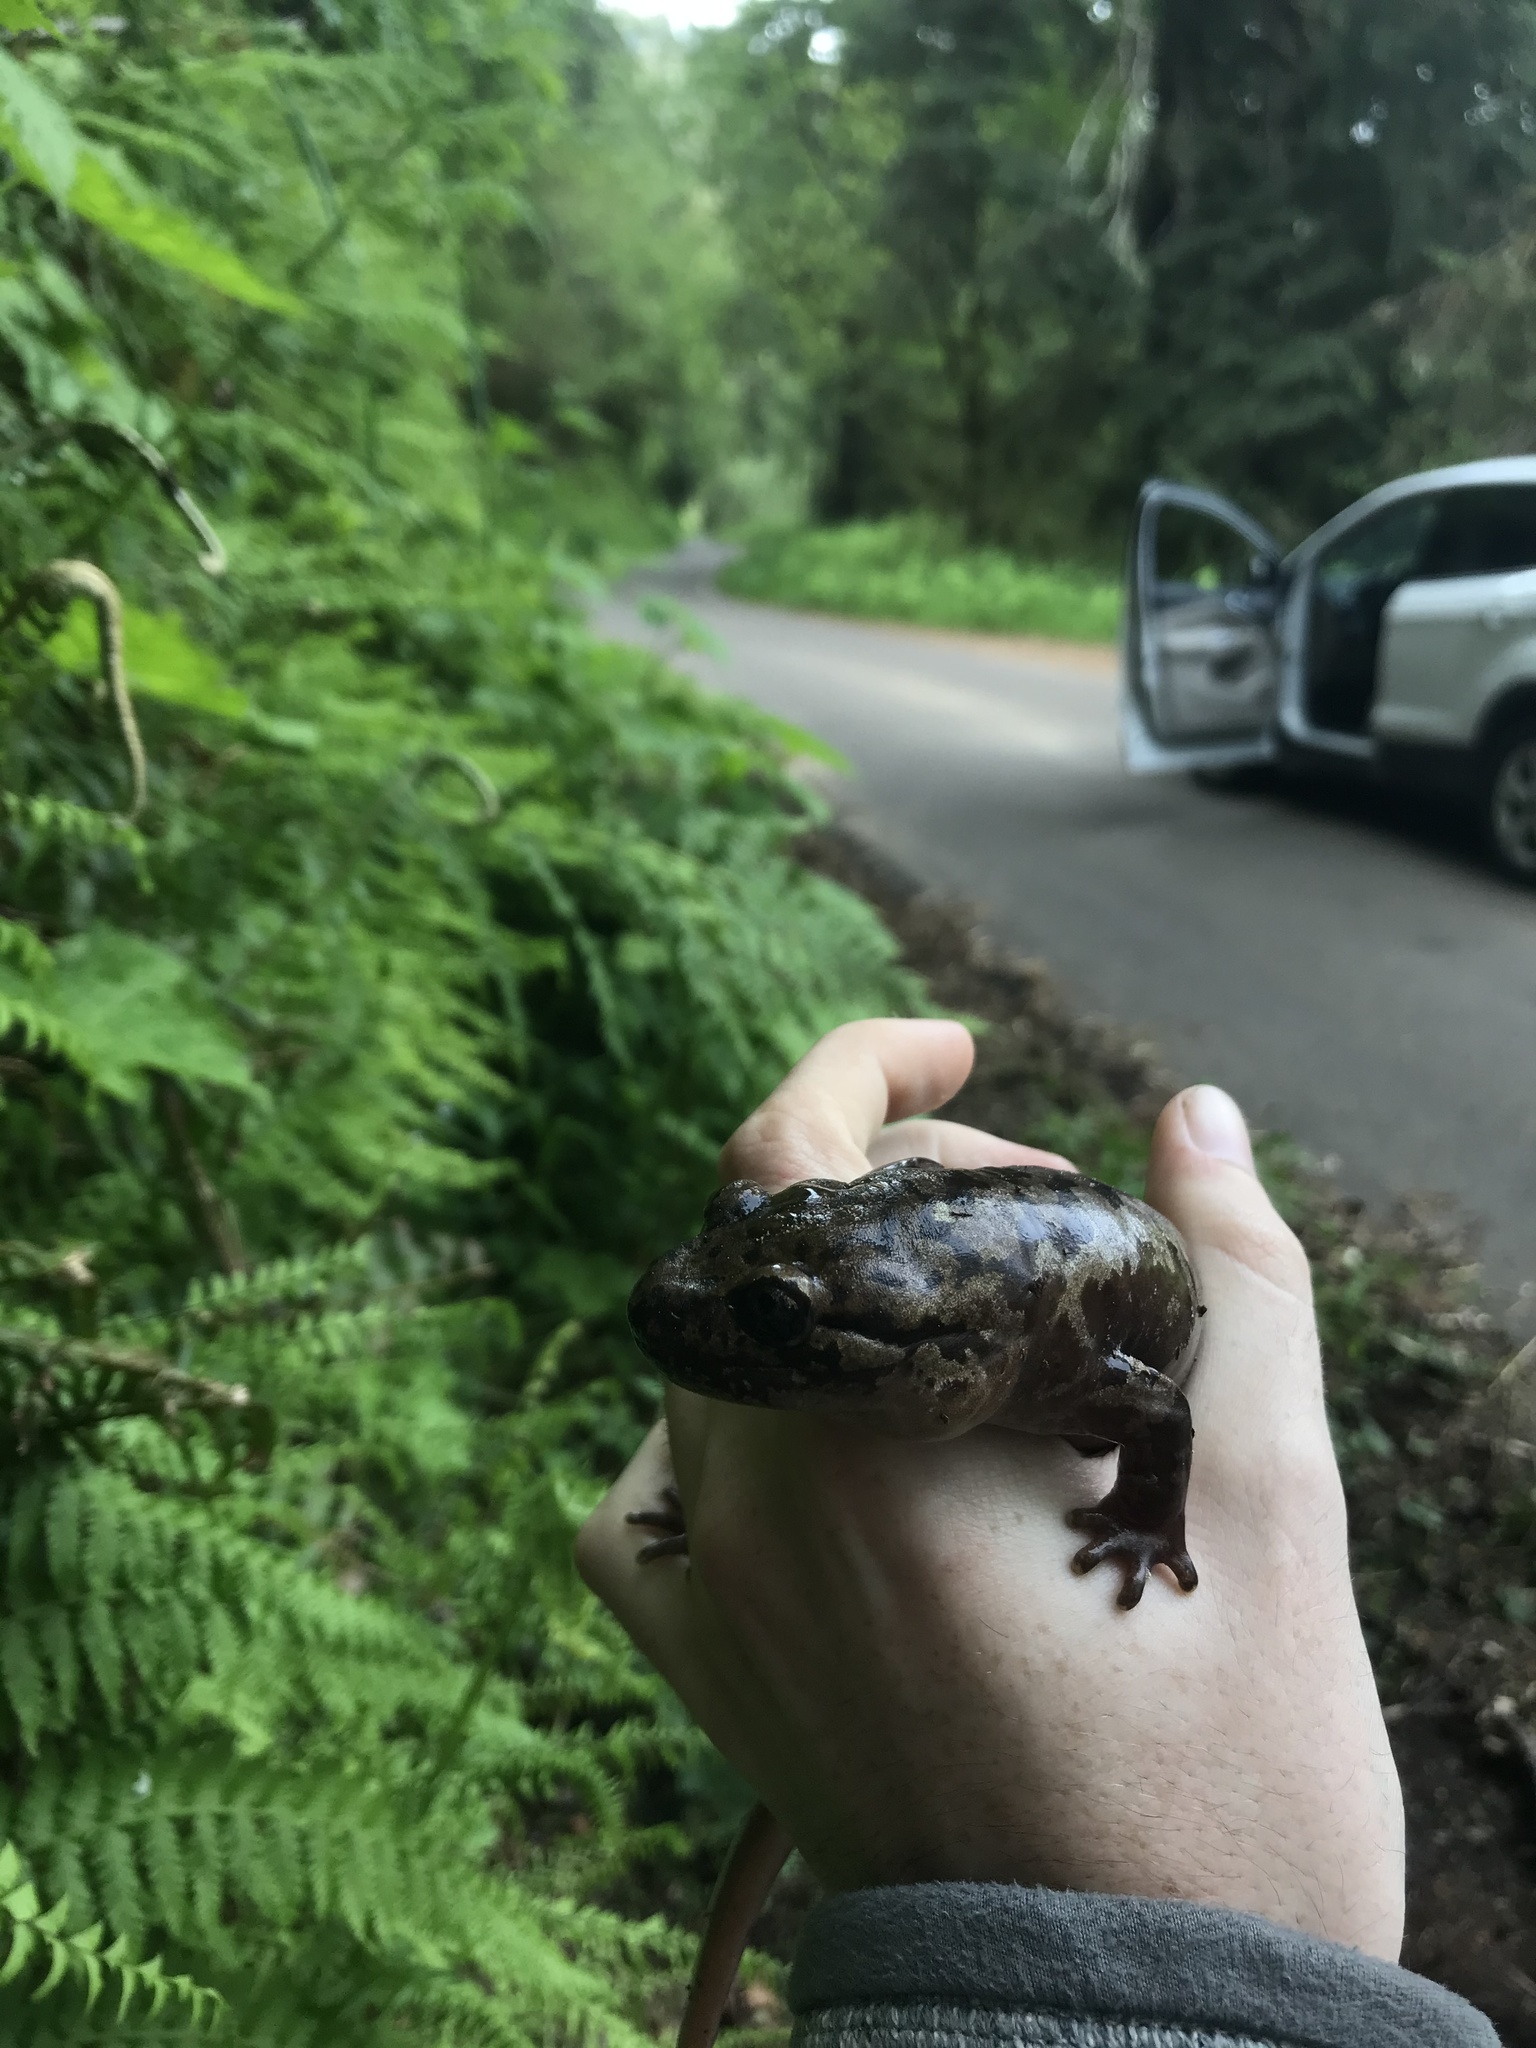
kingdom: Animalia
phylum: Chordata
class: Amphibia
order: Caudata
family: Ambystomatidae
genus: Dicamptodon
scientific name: Dicamptodon tenebrosus
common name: Coastal giant salamander
